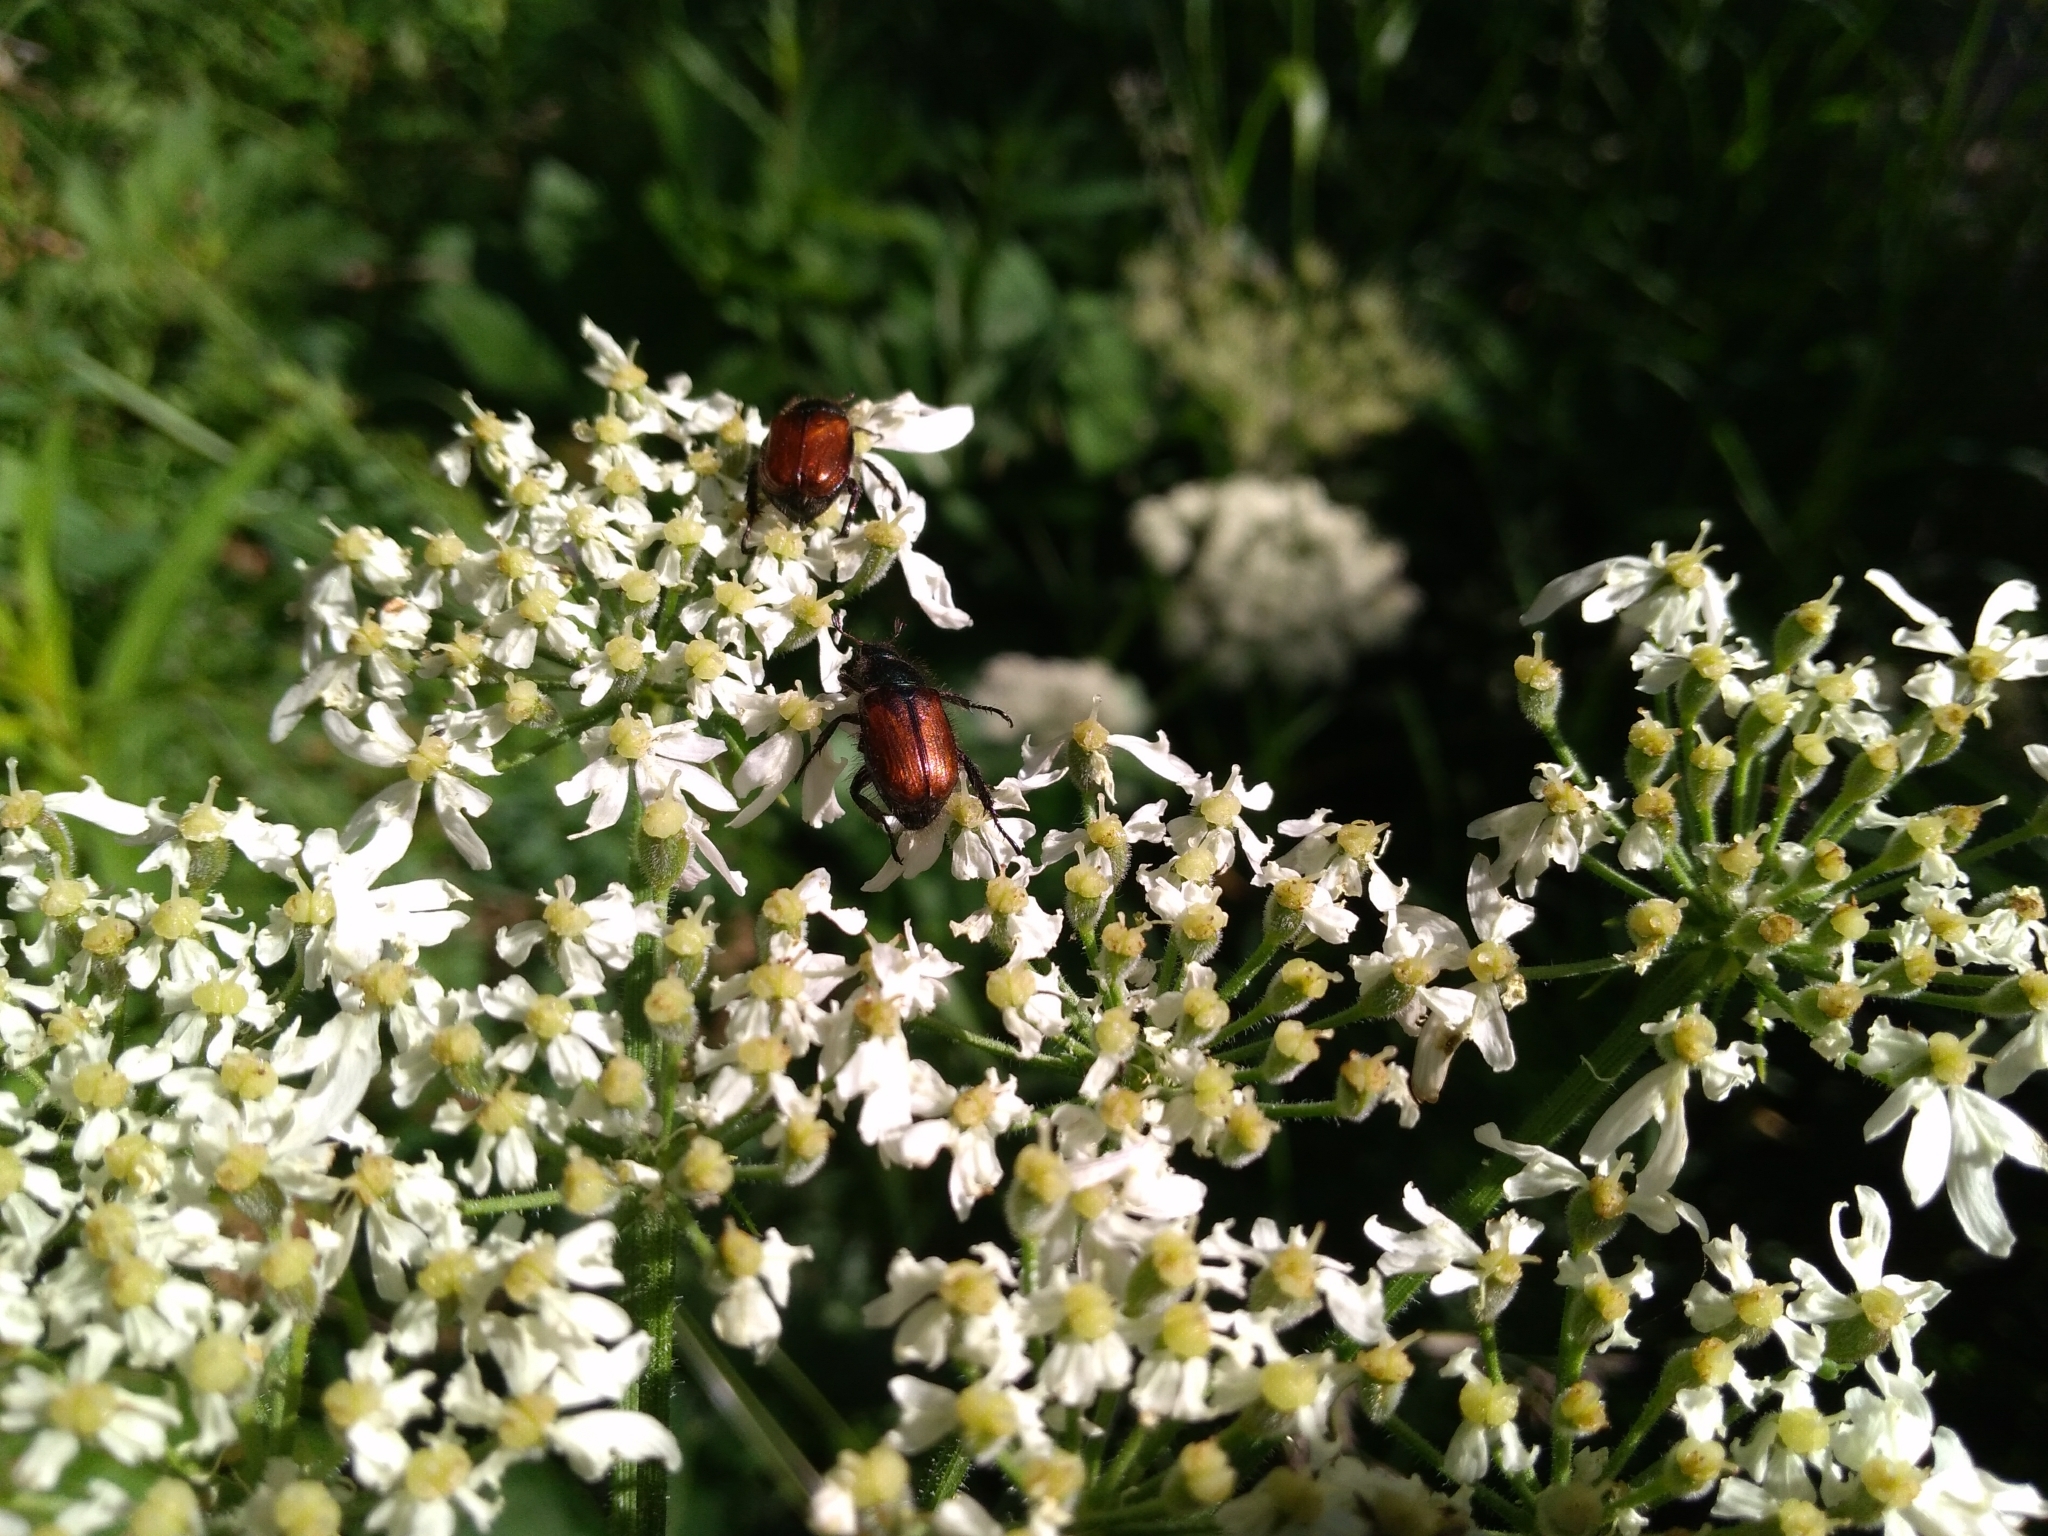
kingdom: Animalia
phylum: Arthropoda
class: Insecta
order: Coleoptera
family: Scarabaeidae
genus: Phyllopertha
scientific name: Phyllopertha horticola
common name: Garden chafer
